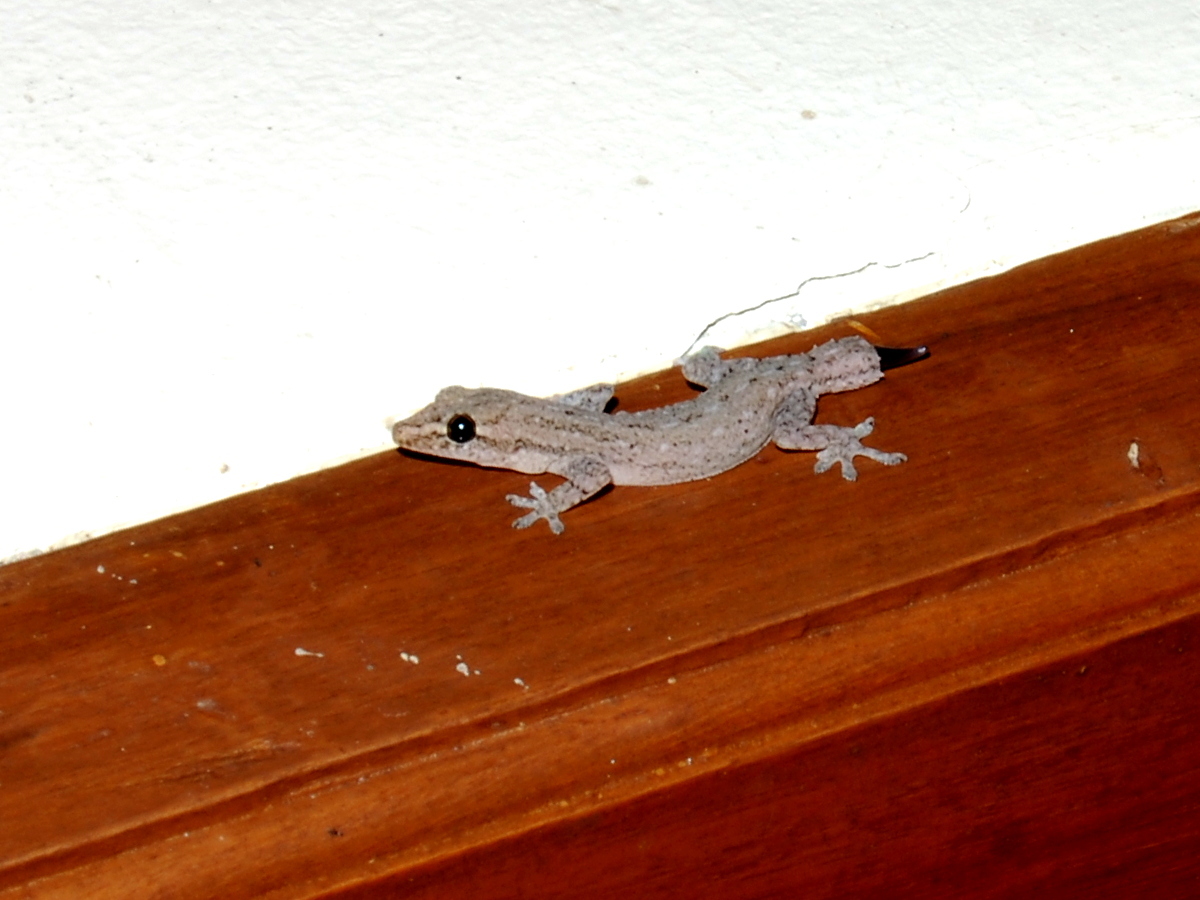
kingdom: Animalia
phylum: Chordata
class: Squamata
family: Gekkonidae
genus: Hemidactylus
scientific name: Hemidactylus frenatus
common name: Common house gecko
